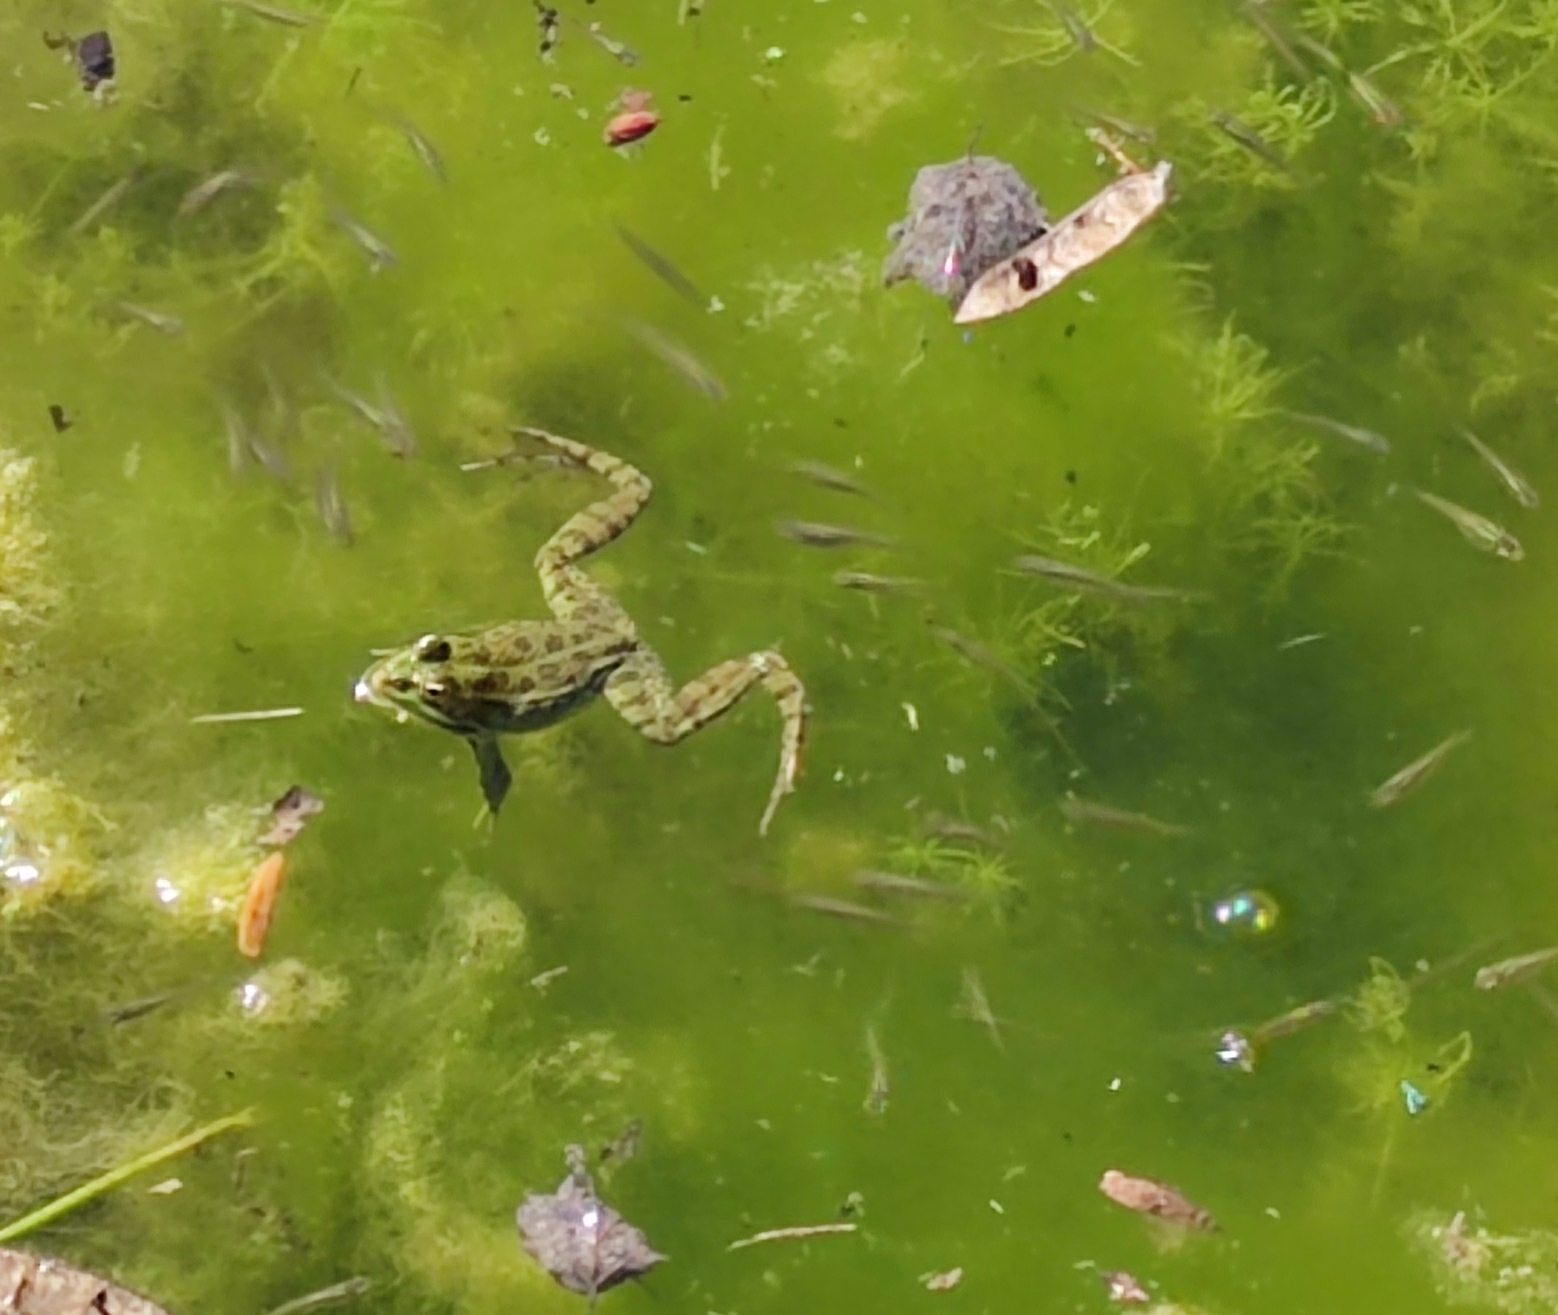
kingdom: Animalia
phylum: Chordata
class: Amphibia
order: Anura
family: Ranidae
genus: Pelophylax
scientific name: Pelophylax perezi
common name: Perez's frog
